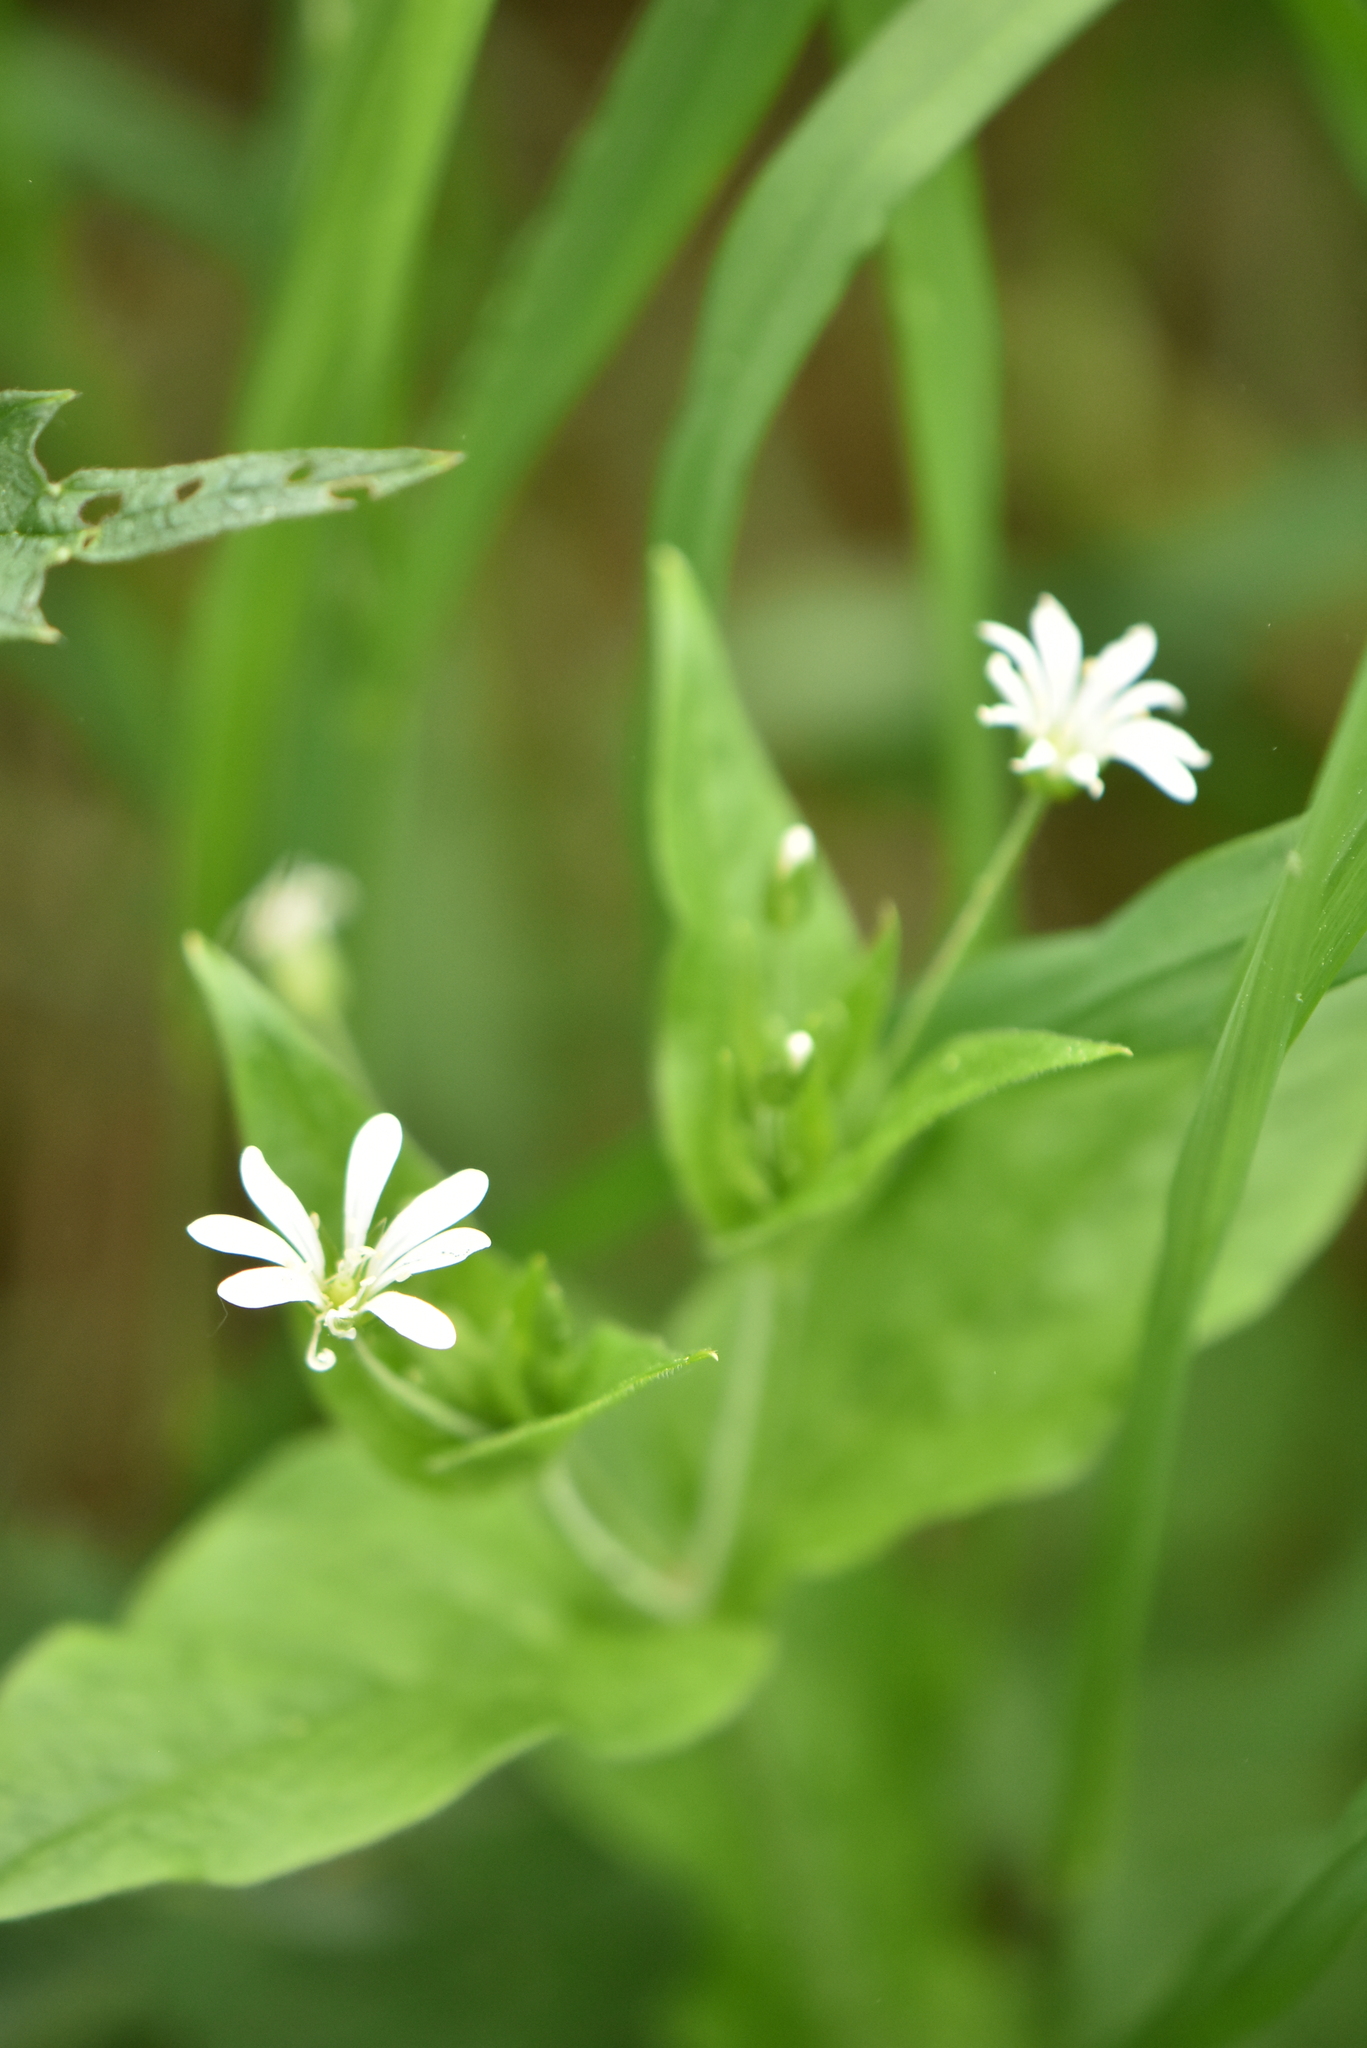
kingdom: Plantae
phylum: Tracheophyta
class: Magnoliopsida
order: Caryophyllales
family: Caryophyllaceae
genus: Stellaria
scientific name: Stellaria nemorum
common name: Wood stitchwort
